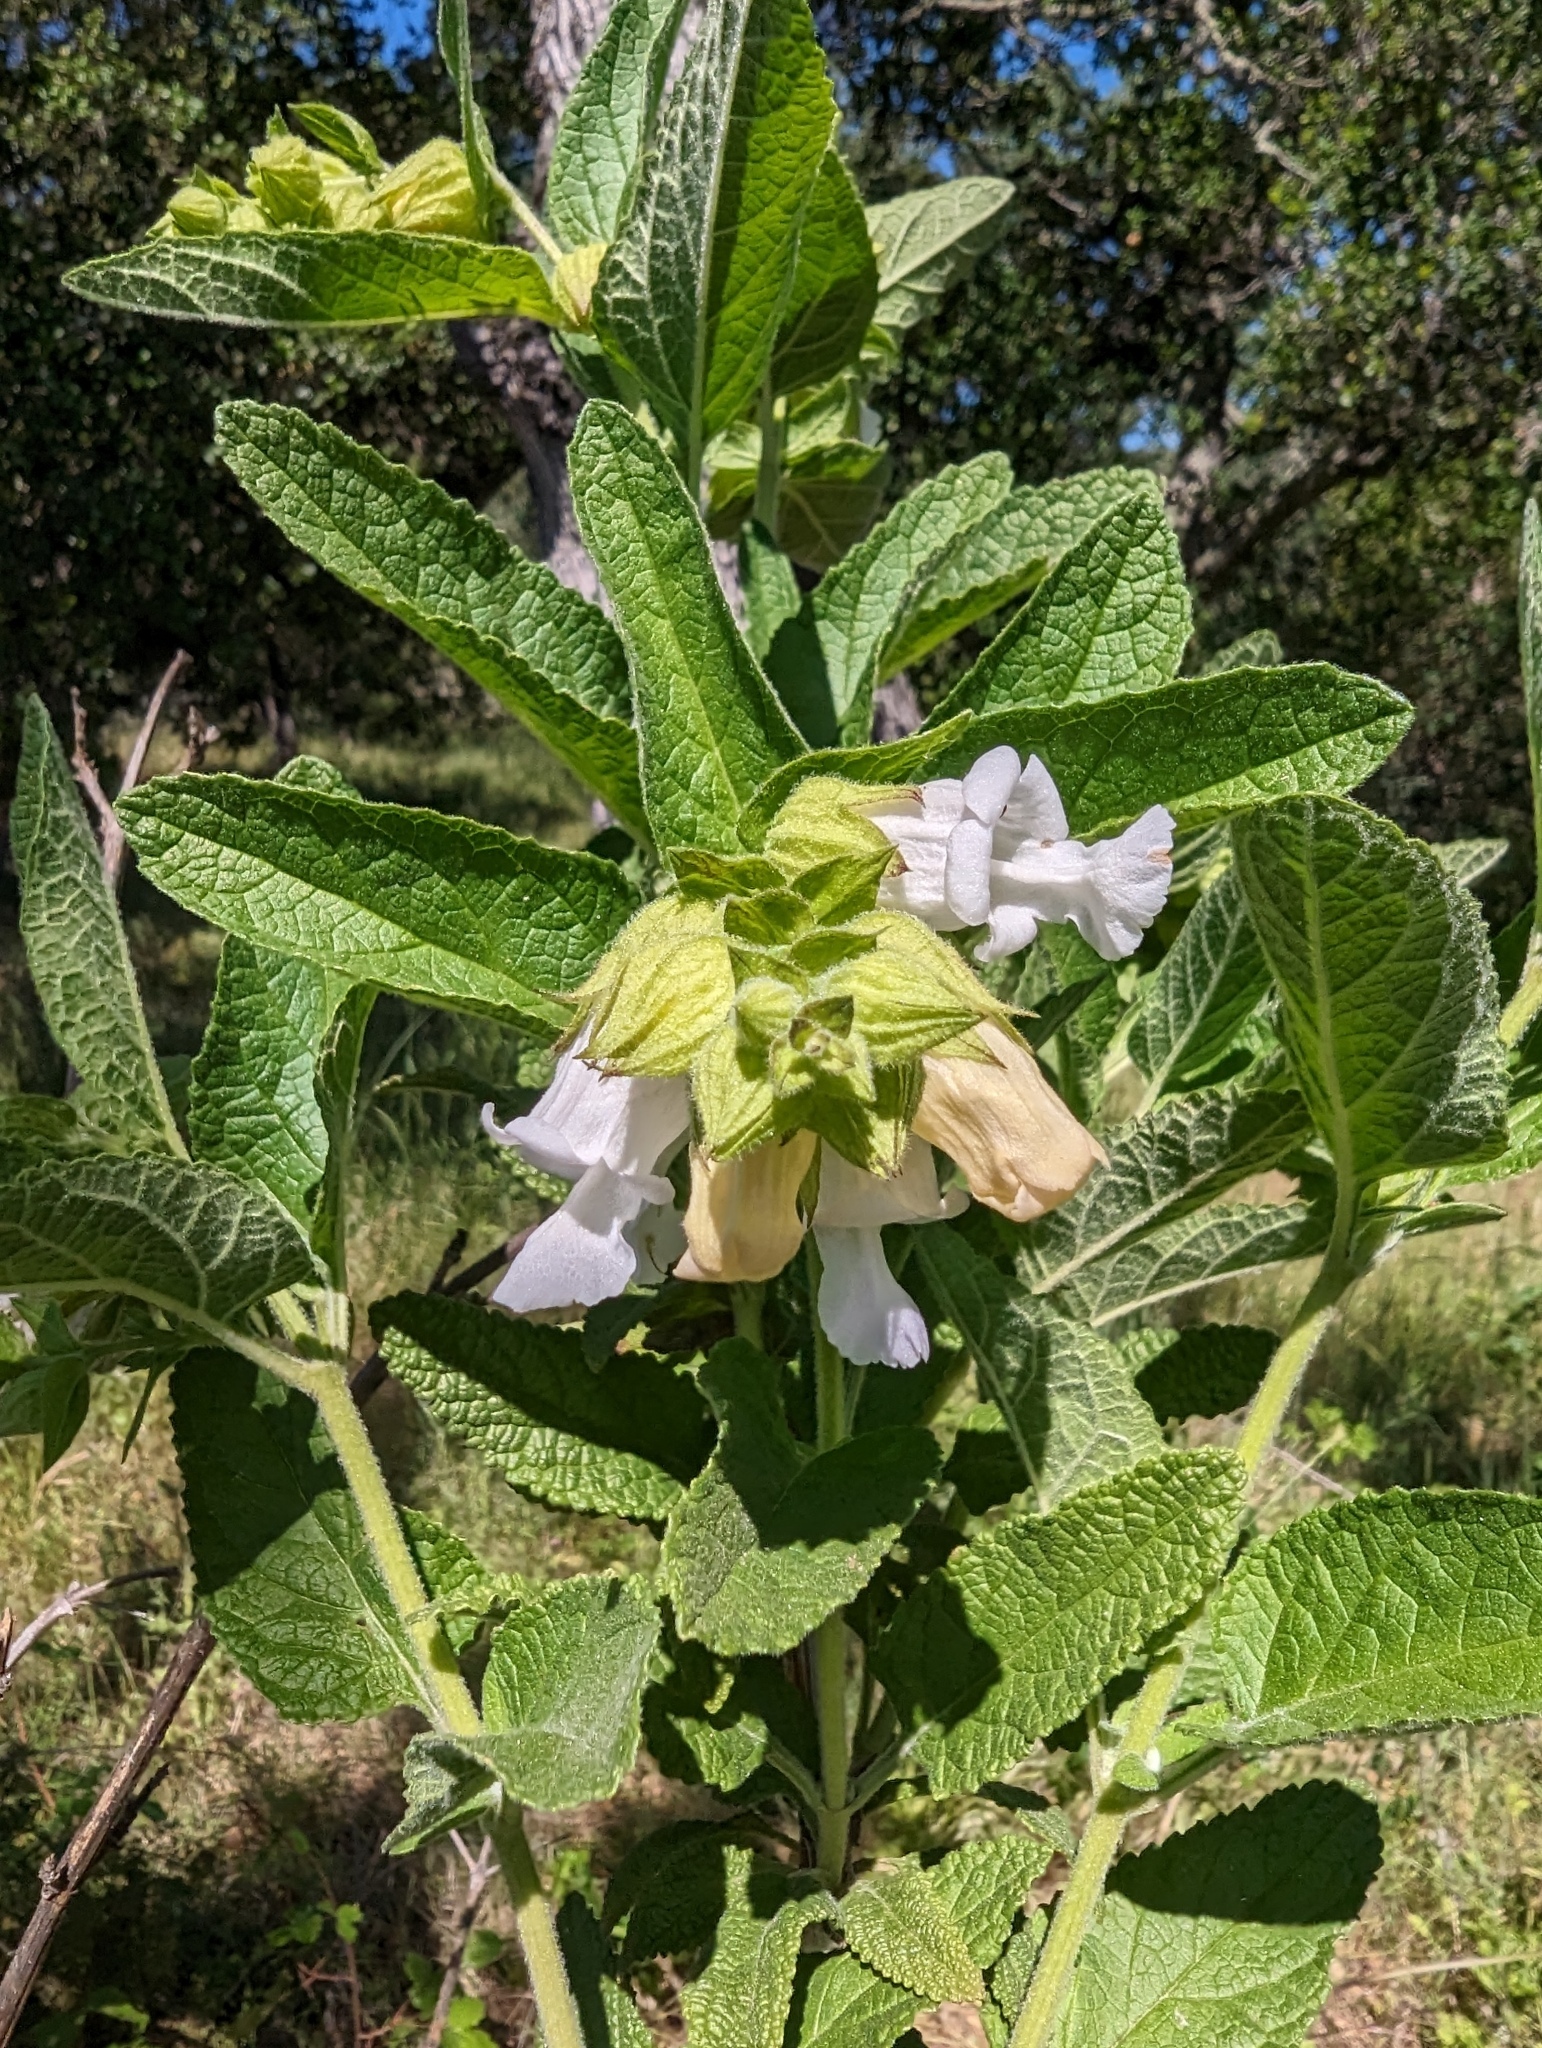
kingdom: Plantae
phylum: Tracheophyta
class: Magnoliopsida
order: Lamiales
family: Lamiaceae
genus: Lepechinia
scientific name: Lepechinia calycina
